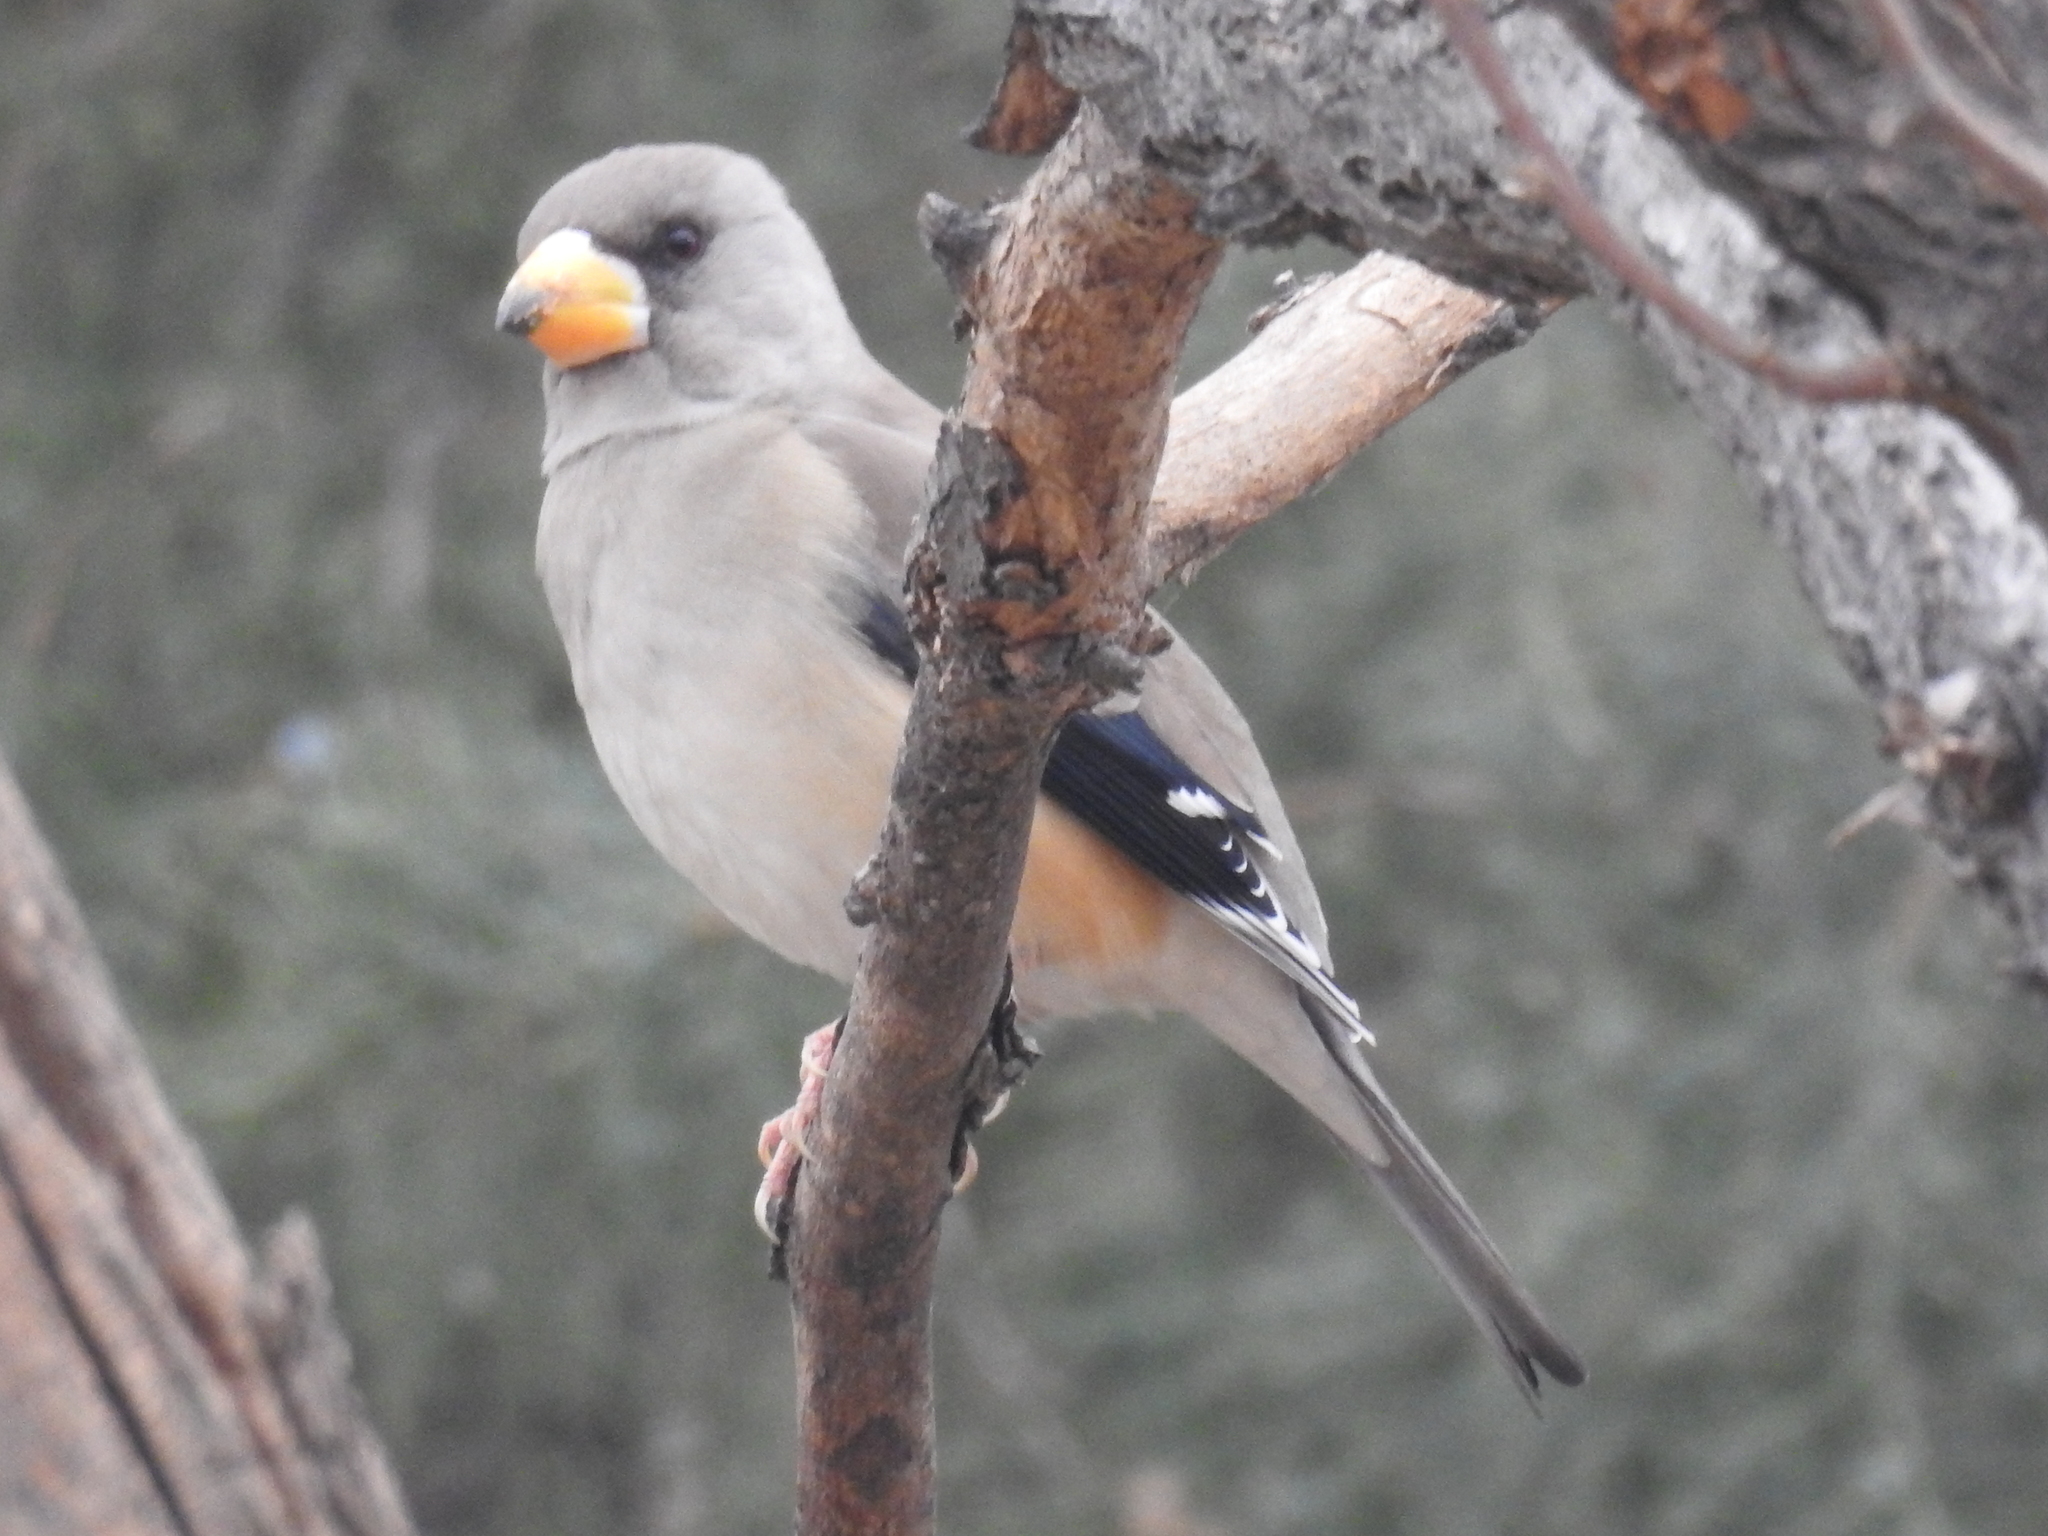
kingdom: Animalia
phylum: Chordata
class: Aves
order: Passeriformes
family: Fringillidae
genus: Eophona
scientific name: Eophona migratoria
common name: Yellow-billed grosbeak
